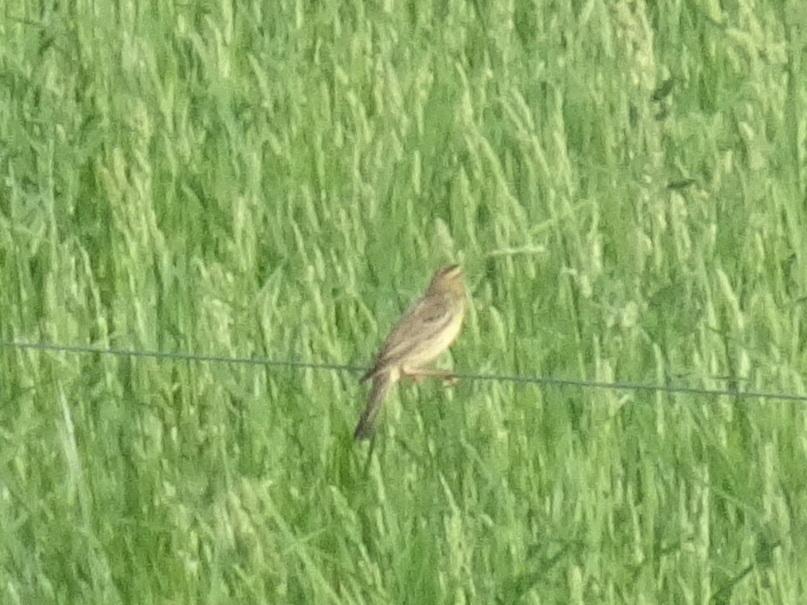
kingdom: Animalia
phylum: Chordata
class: Aves
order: Passeriformes
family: Icteridae
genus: Dolichonyx
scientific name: Dolichonyx oryzivorus
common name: Bobolink
